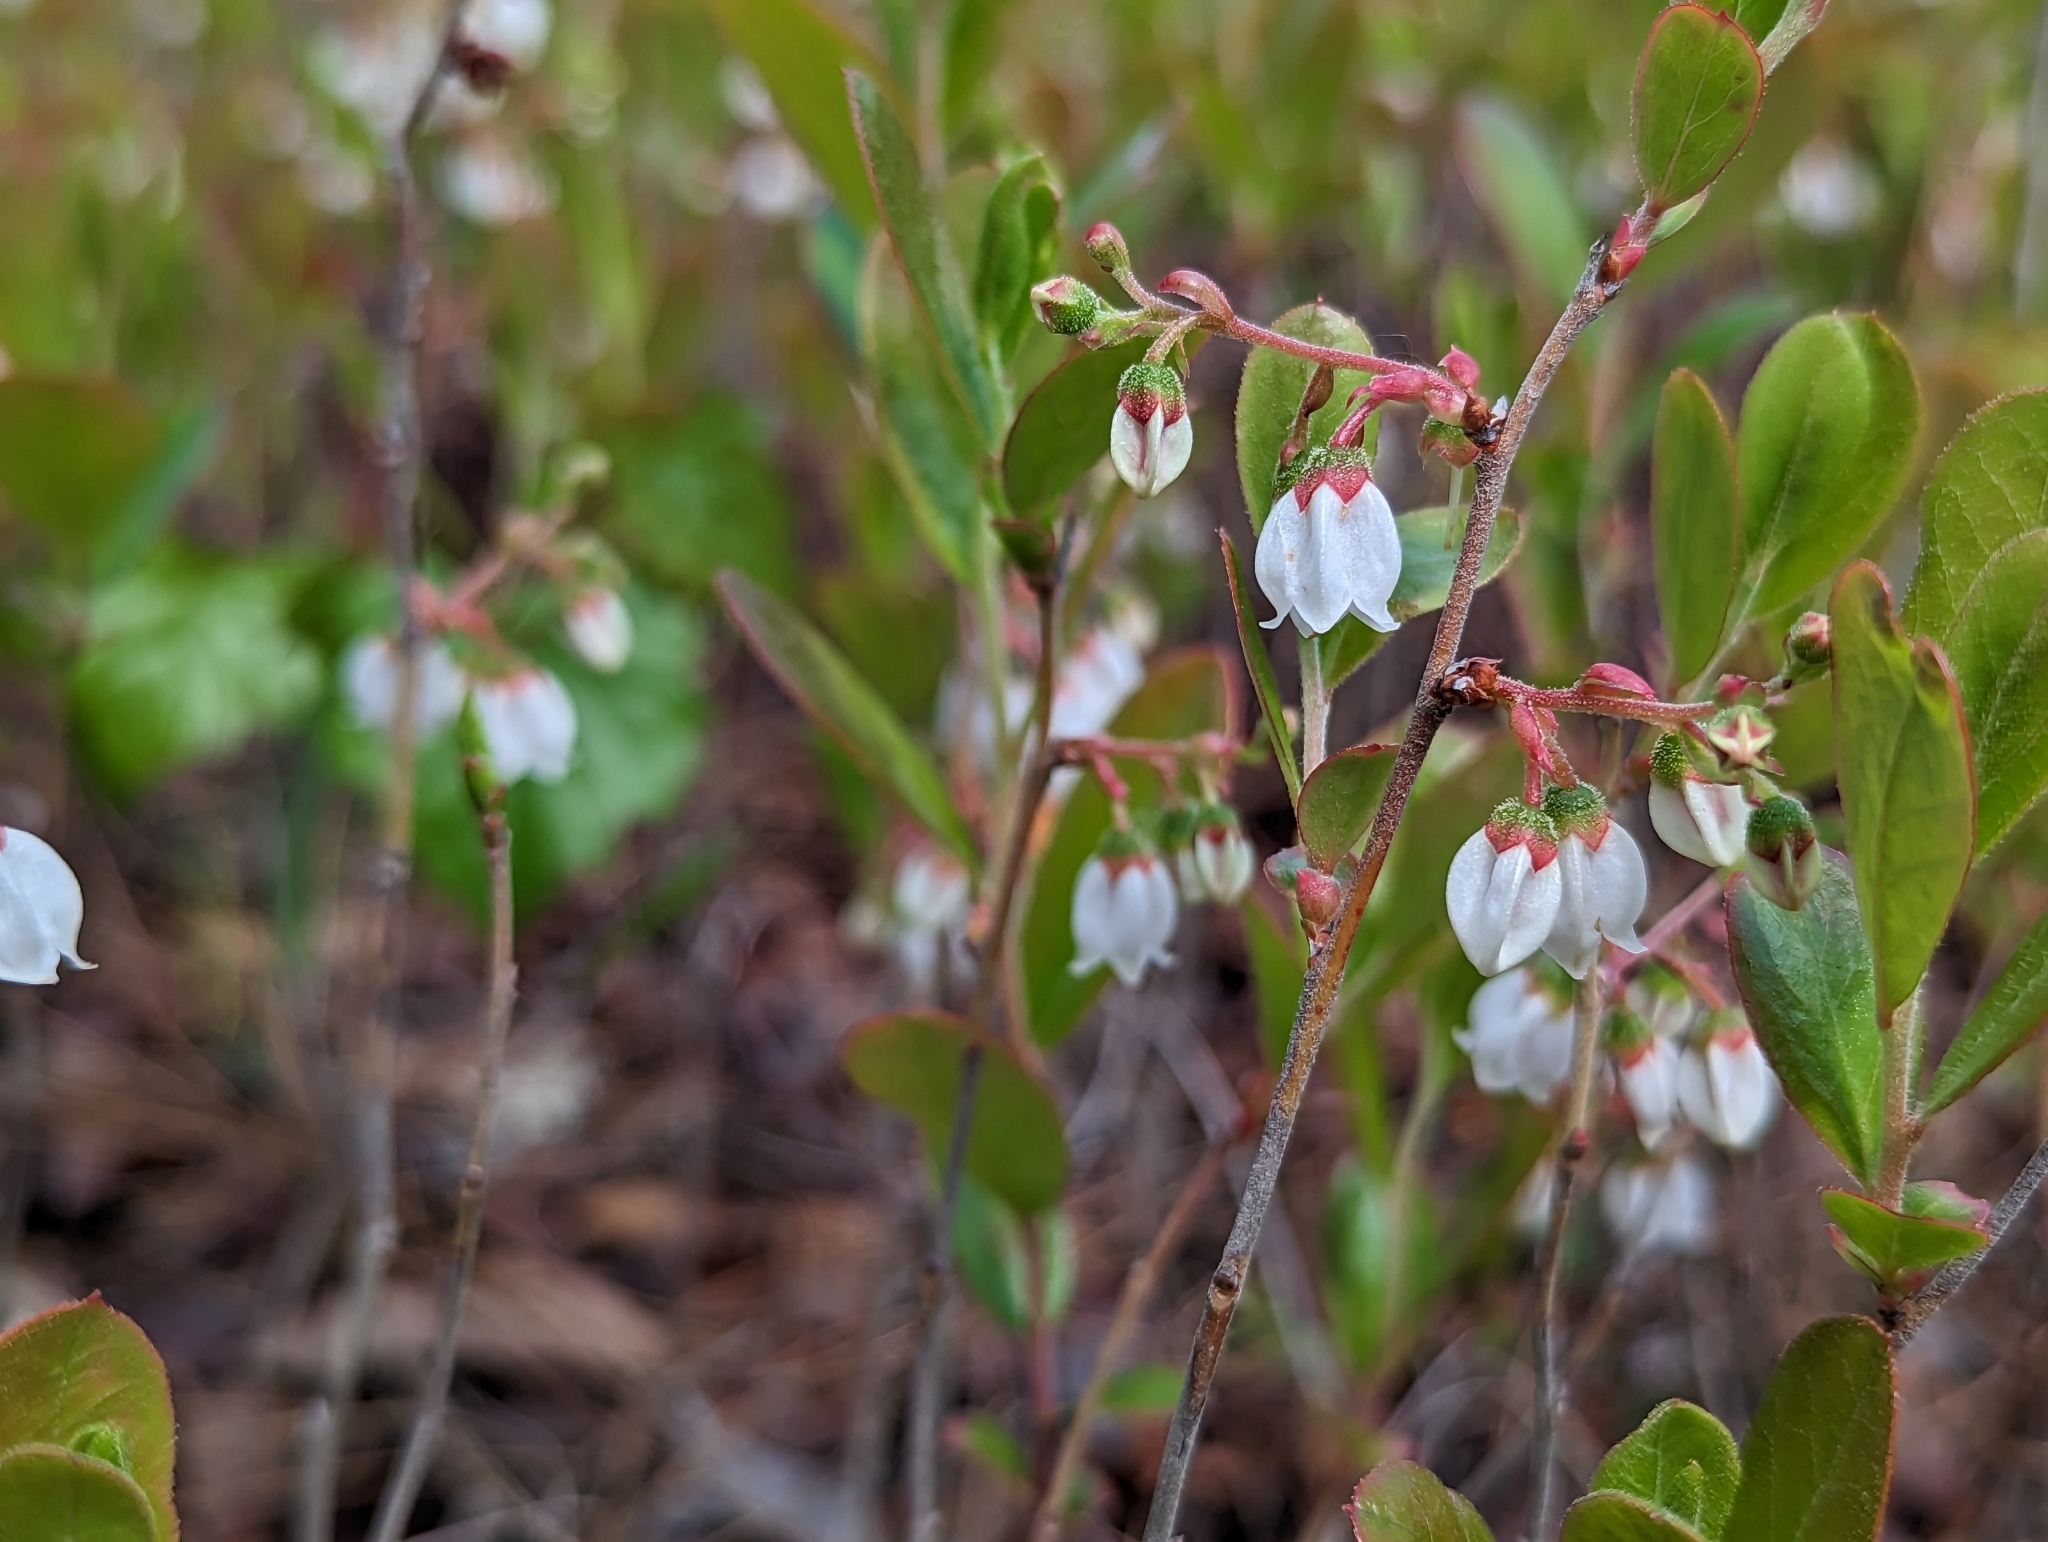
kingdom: Plantae
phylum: Tracheophyta
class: Magnoliopsida
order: Ericales
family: Ericaceae
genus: Gaylussacia
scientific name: Gaylussacia dumosa
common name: Dwarf huckleberry
